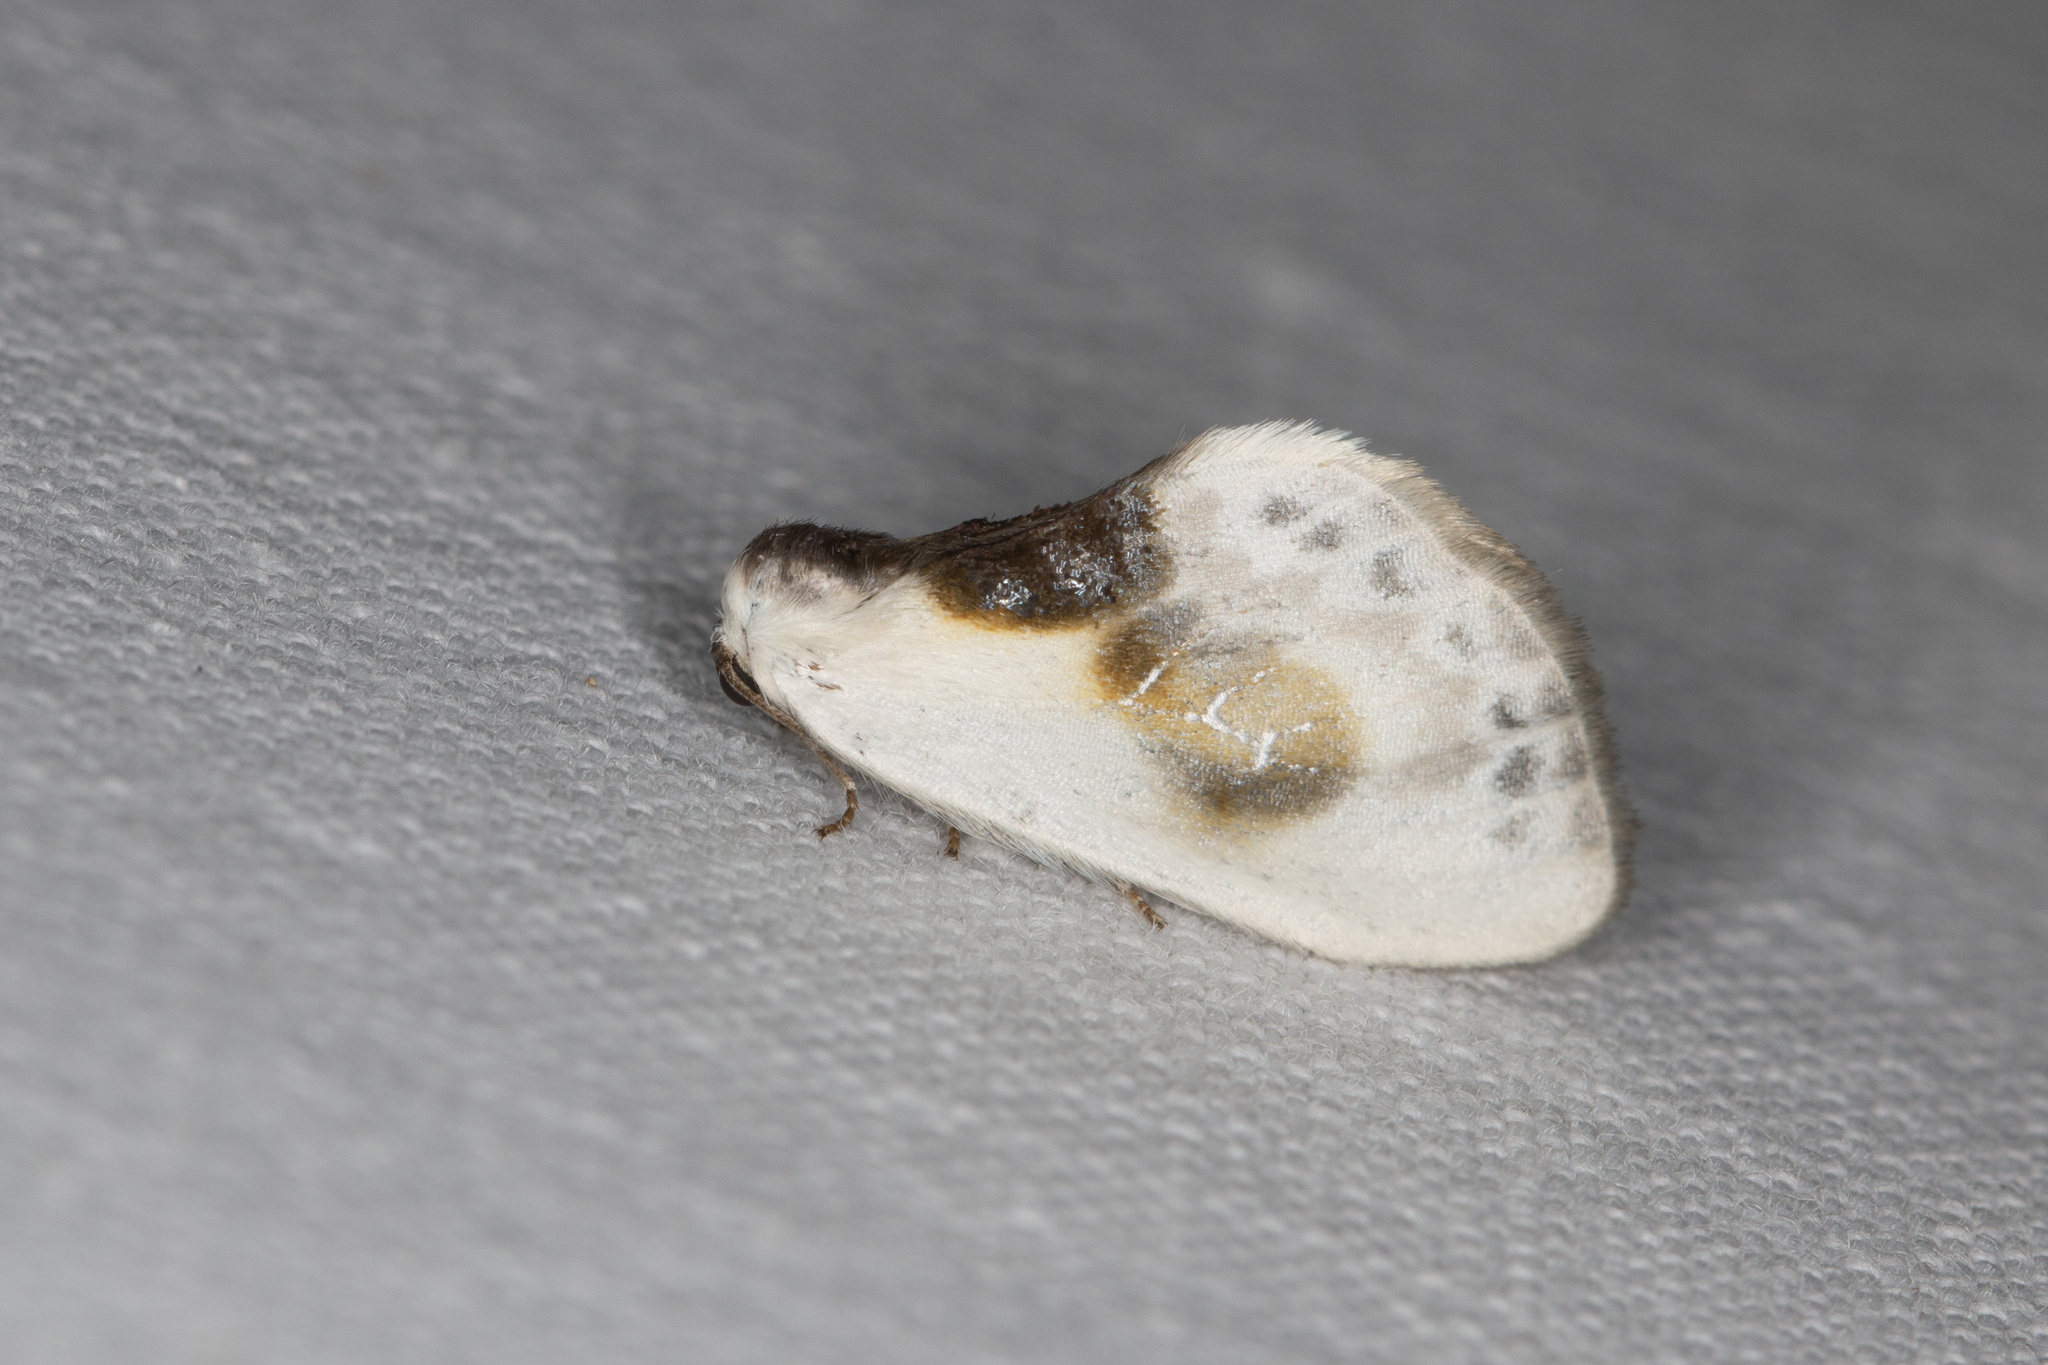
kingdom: Animalia
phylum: Arthropoda
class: Insecta
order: Lepidoptera
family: Drepanidae
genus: Cilix
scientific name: Cilix glaucata
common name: Chinese character
